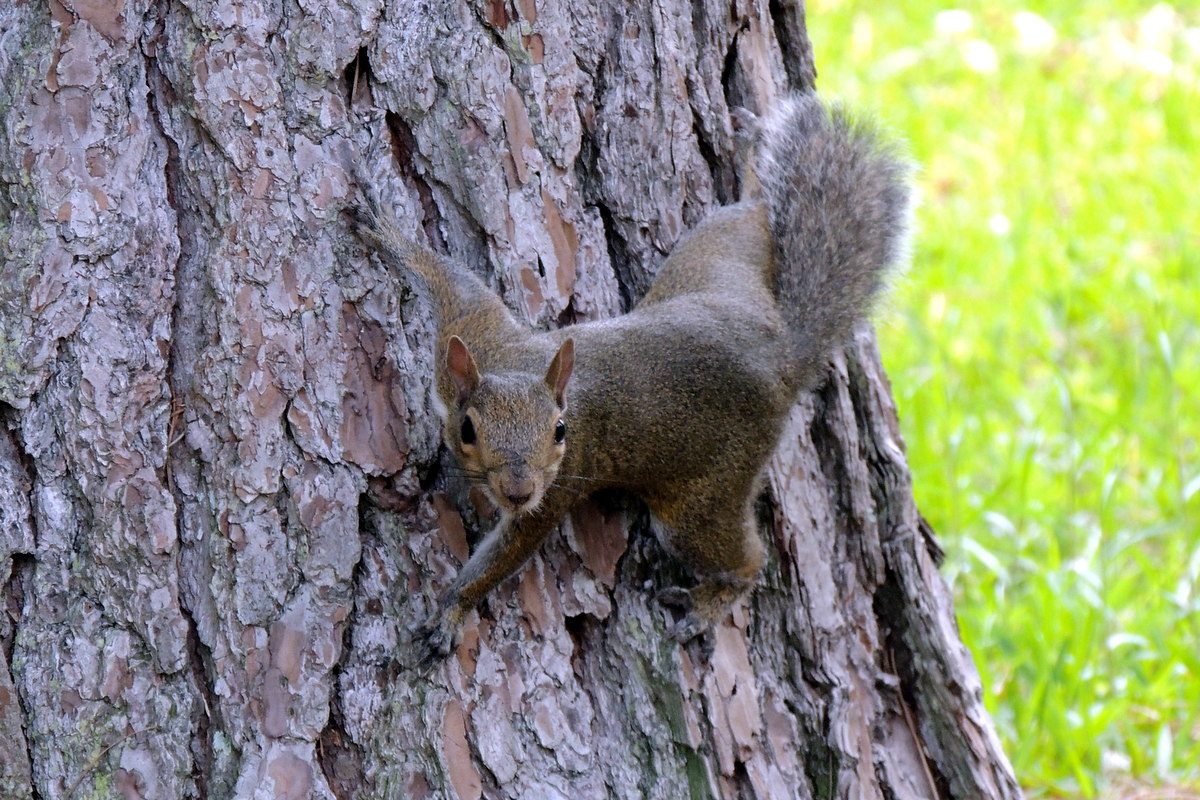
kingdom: Animalia
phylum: Chordata
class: Mammalia
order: Rodentia
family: Sciuridae
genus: Sciurus
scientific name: Sciurus carolinensis
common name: Eastern gray squirrel
